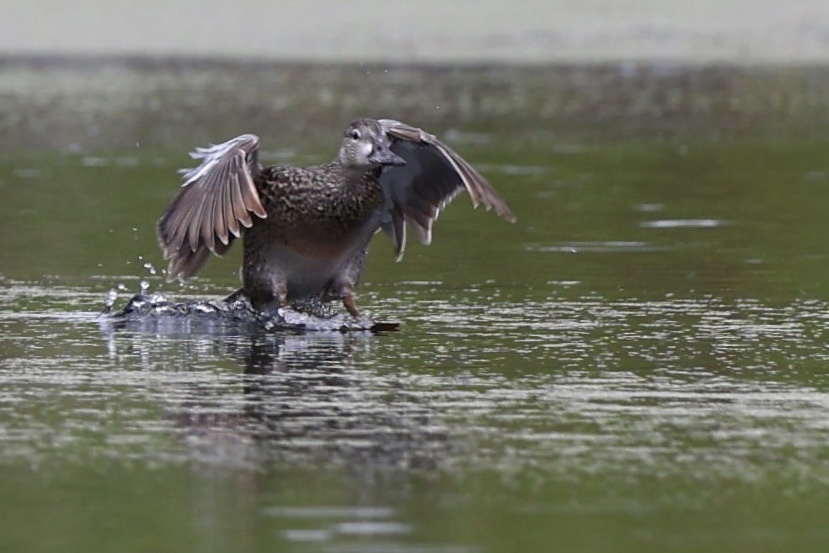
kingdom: Animalia
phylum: Chordata
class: Aves
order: Anseriformes
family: Anatidae
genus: Spatula
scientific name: Spatula discors
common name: Blue-winged teal
